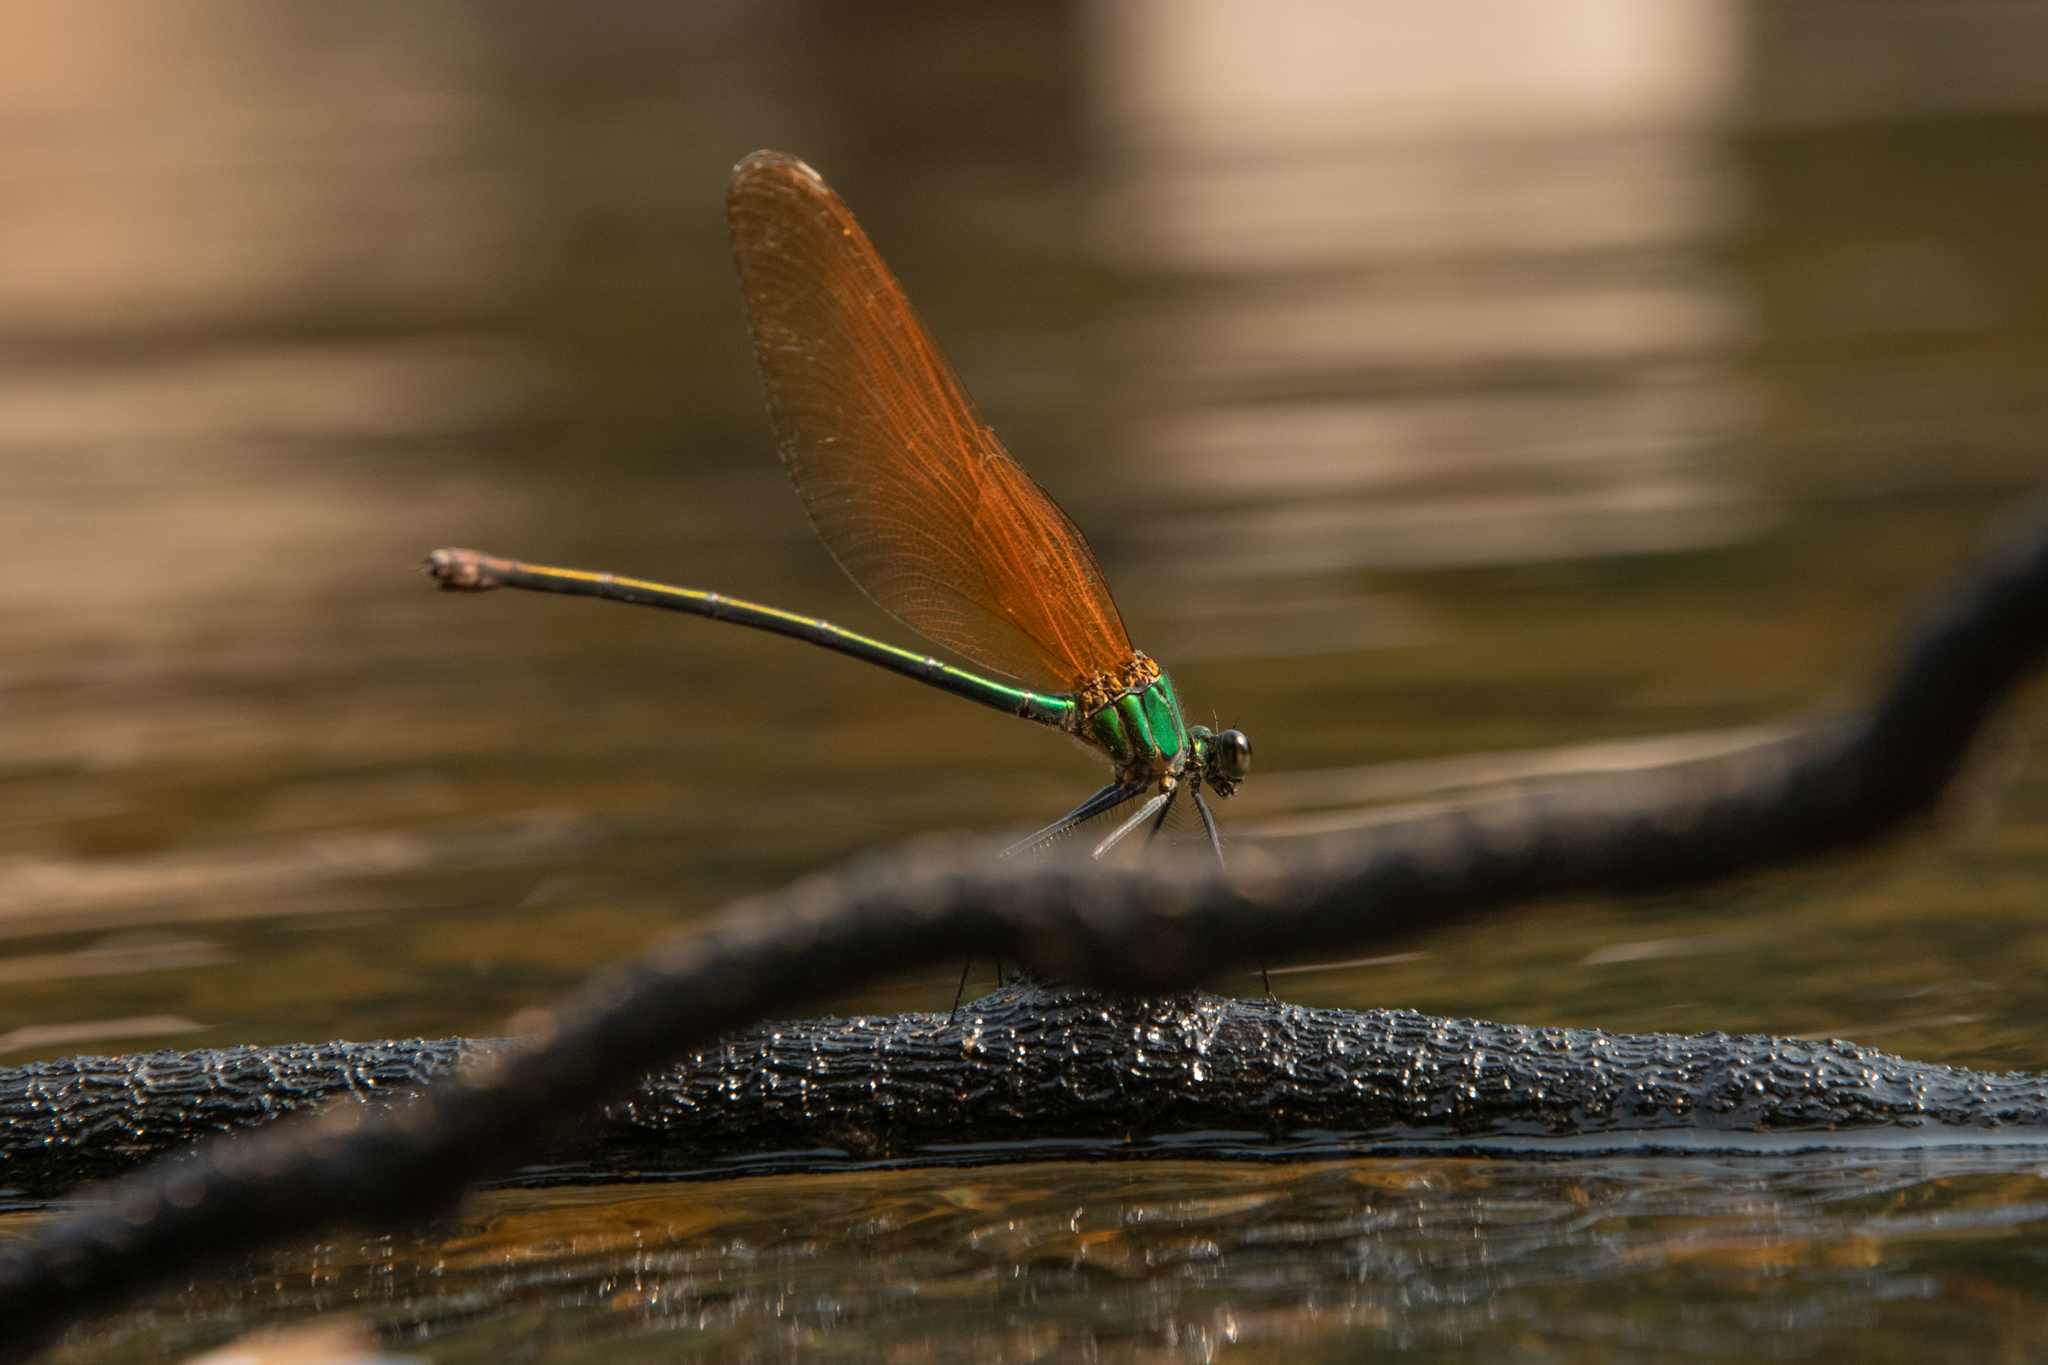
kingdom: Animalia
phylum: Arthropoda
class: Insecta
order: Odonata
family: Calopterygidae
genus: Archineura
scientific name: Archineura incarnata
